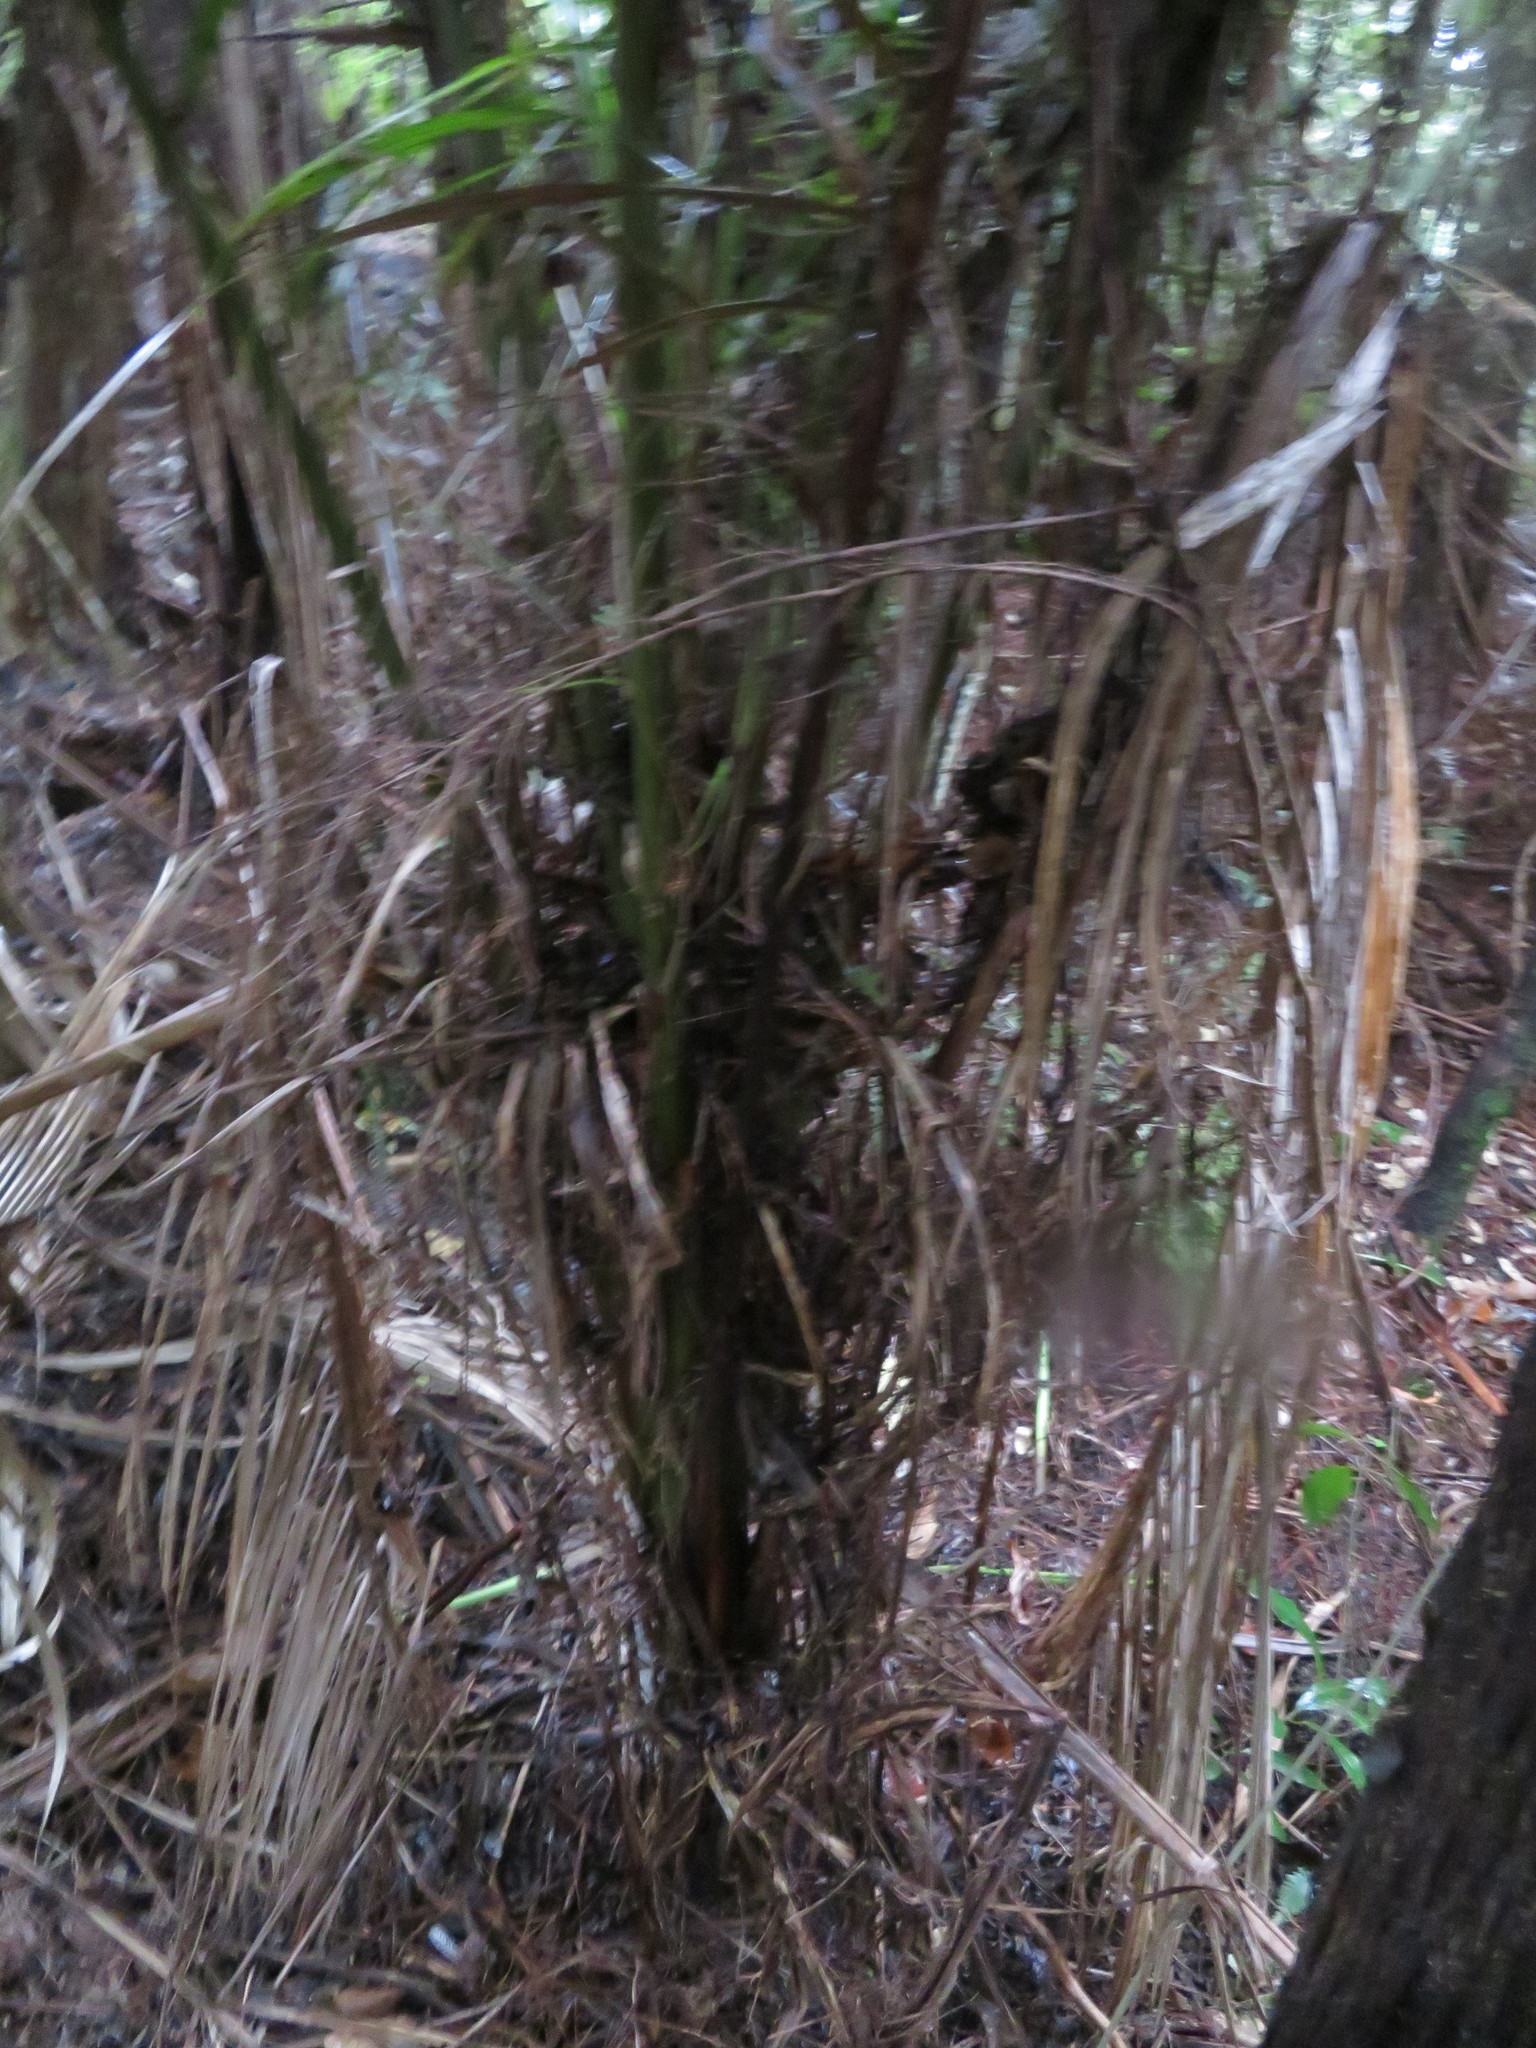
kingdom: Plantae
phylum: Tracheophyta
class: Liliopsida
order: Arecales
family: Arecaceae
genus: Rhopalostylis
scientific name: Rhopalostylis sapida
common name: Feather-duster palm
